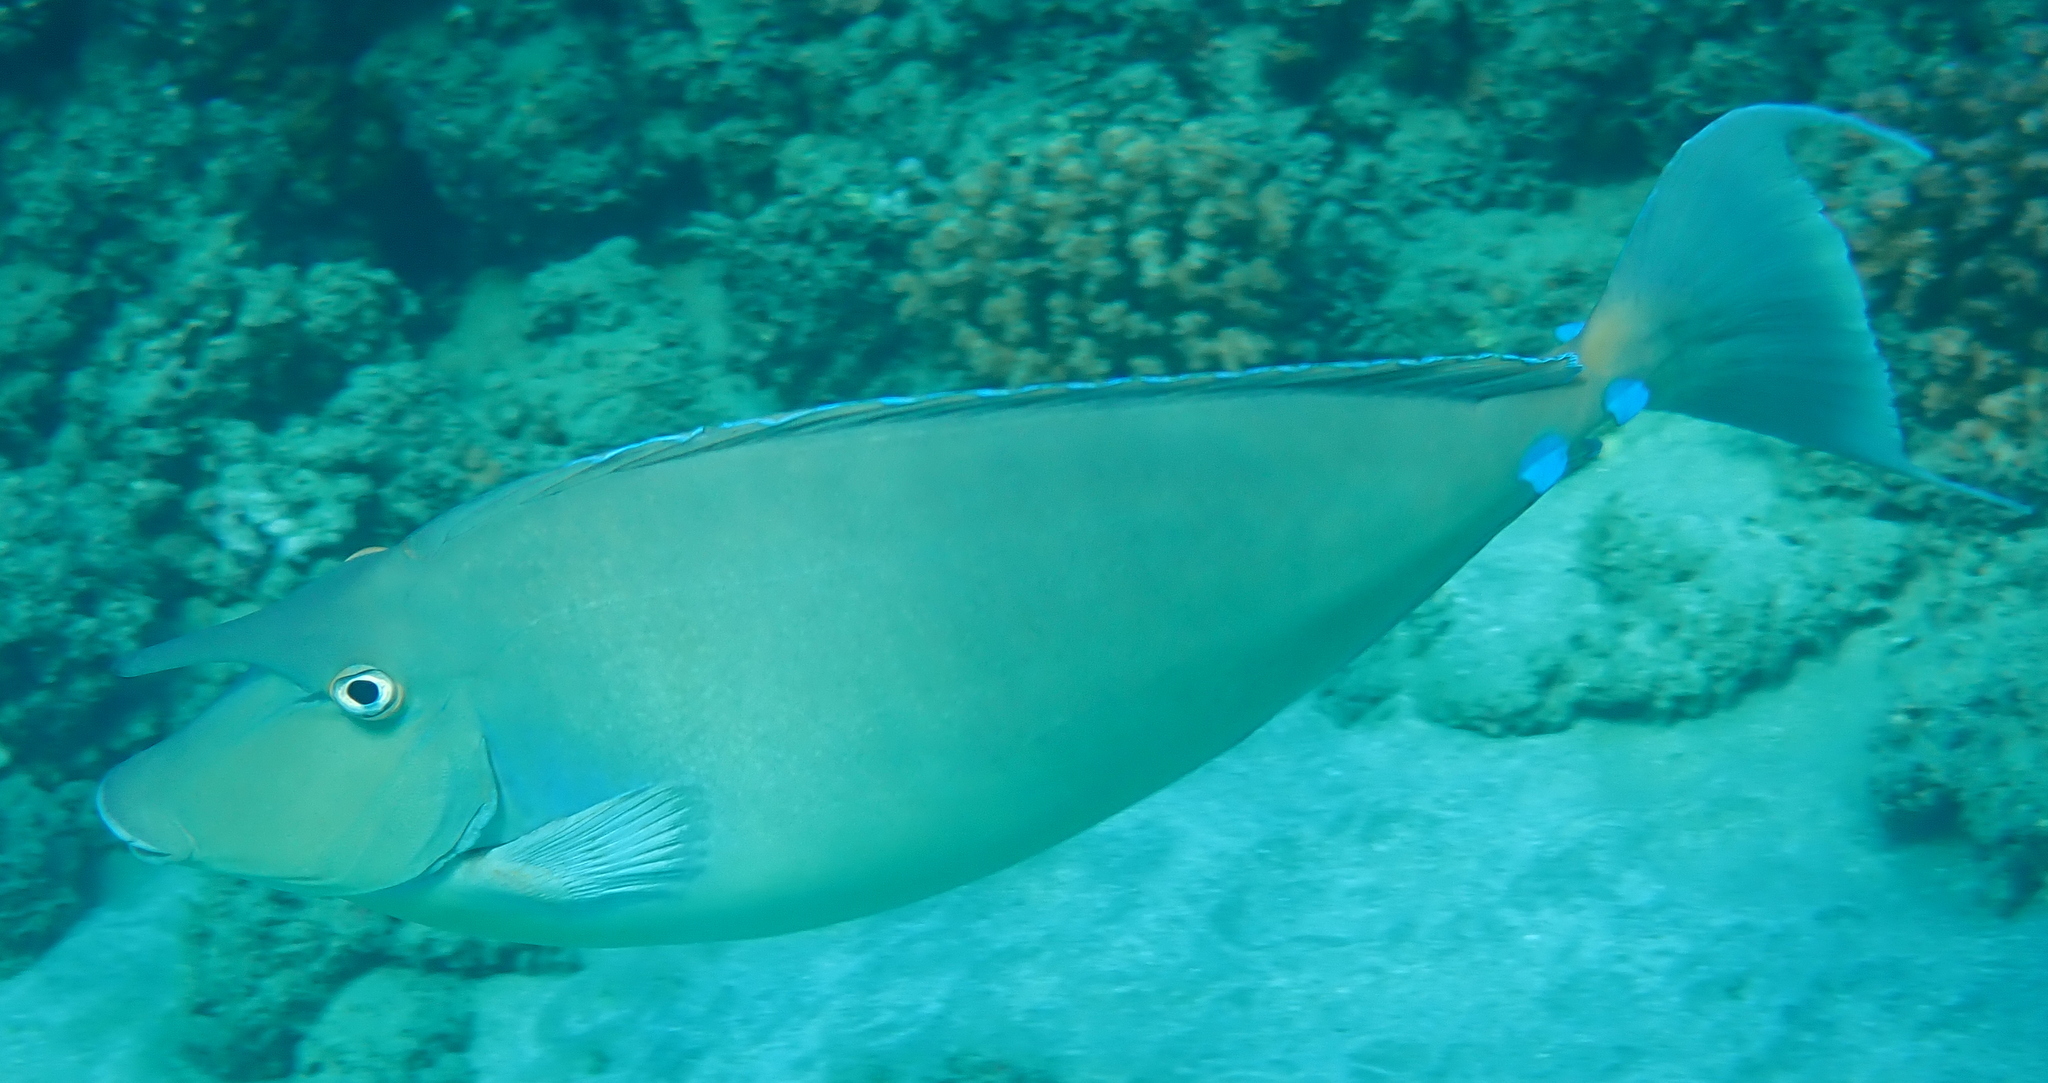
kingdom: Animalia
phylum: Chordata
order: Perciformes
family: Acanthuridae
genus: Naso
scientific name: Naso unicornis
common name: Bluespine unicornfish
